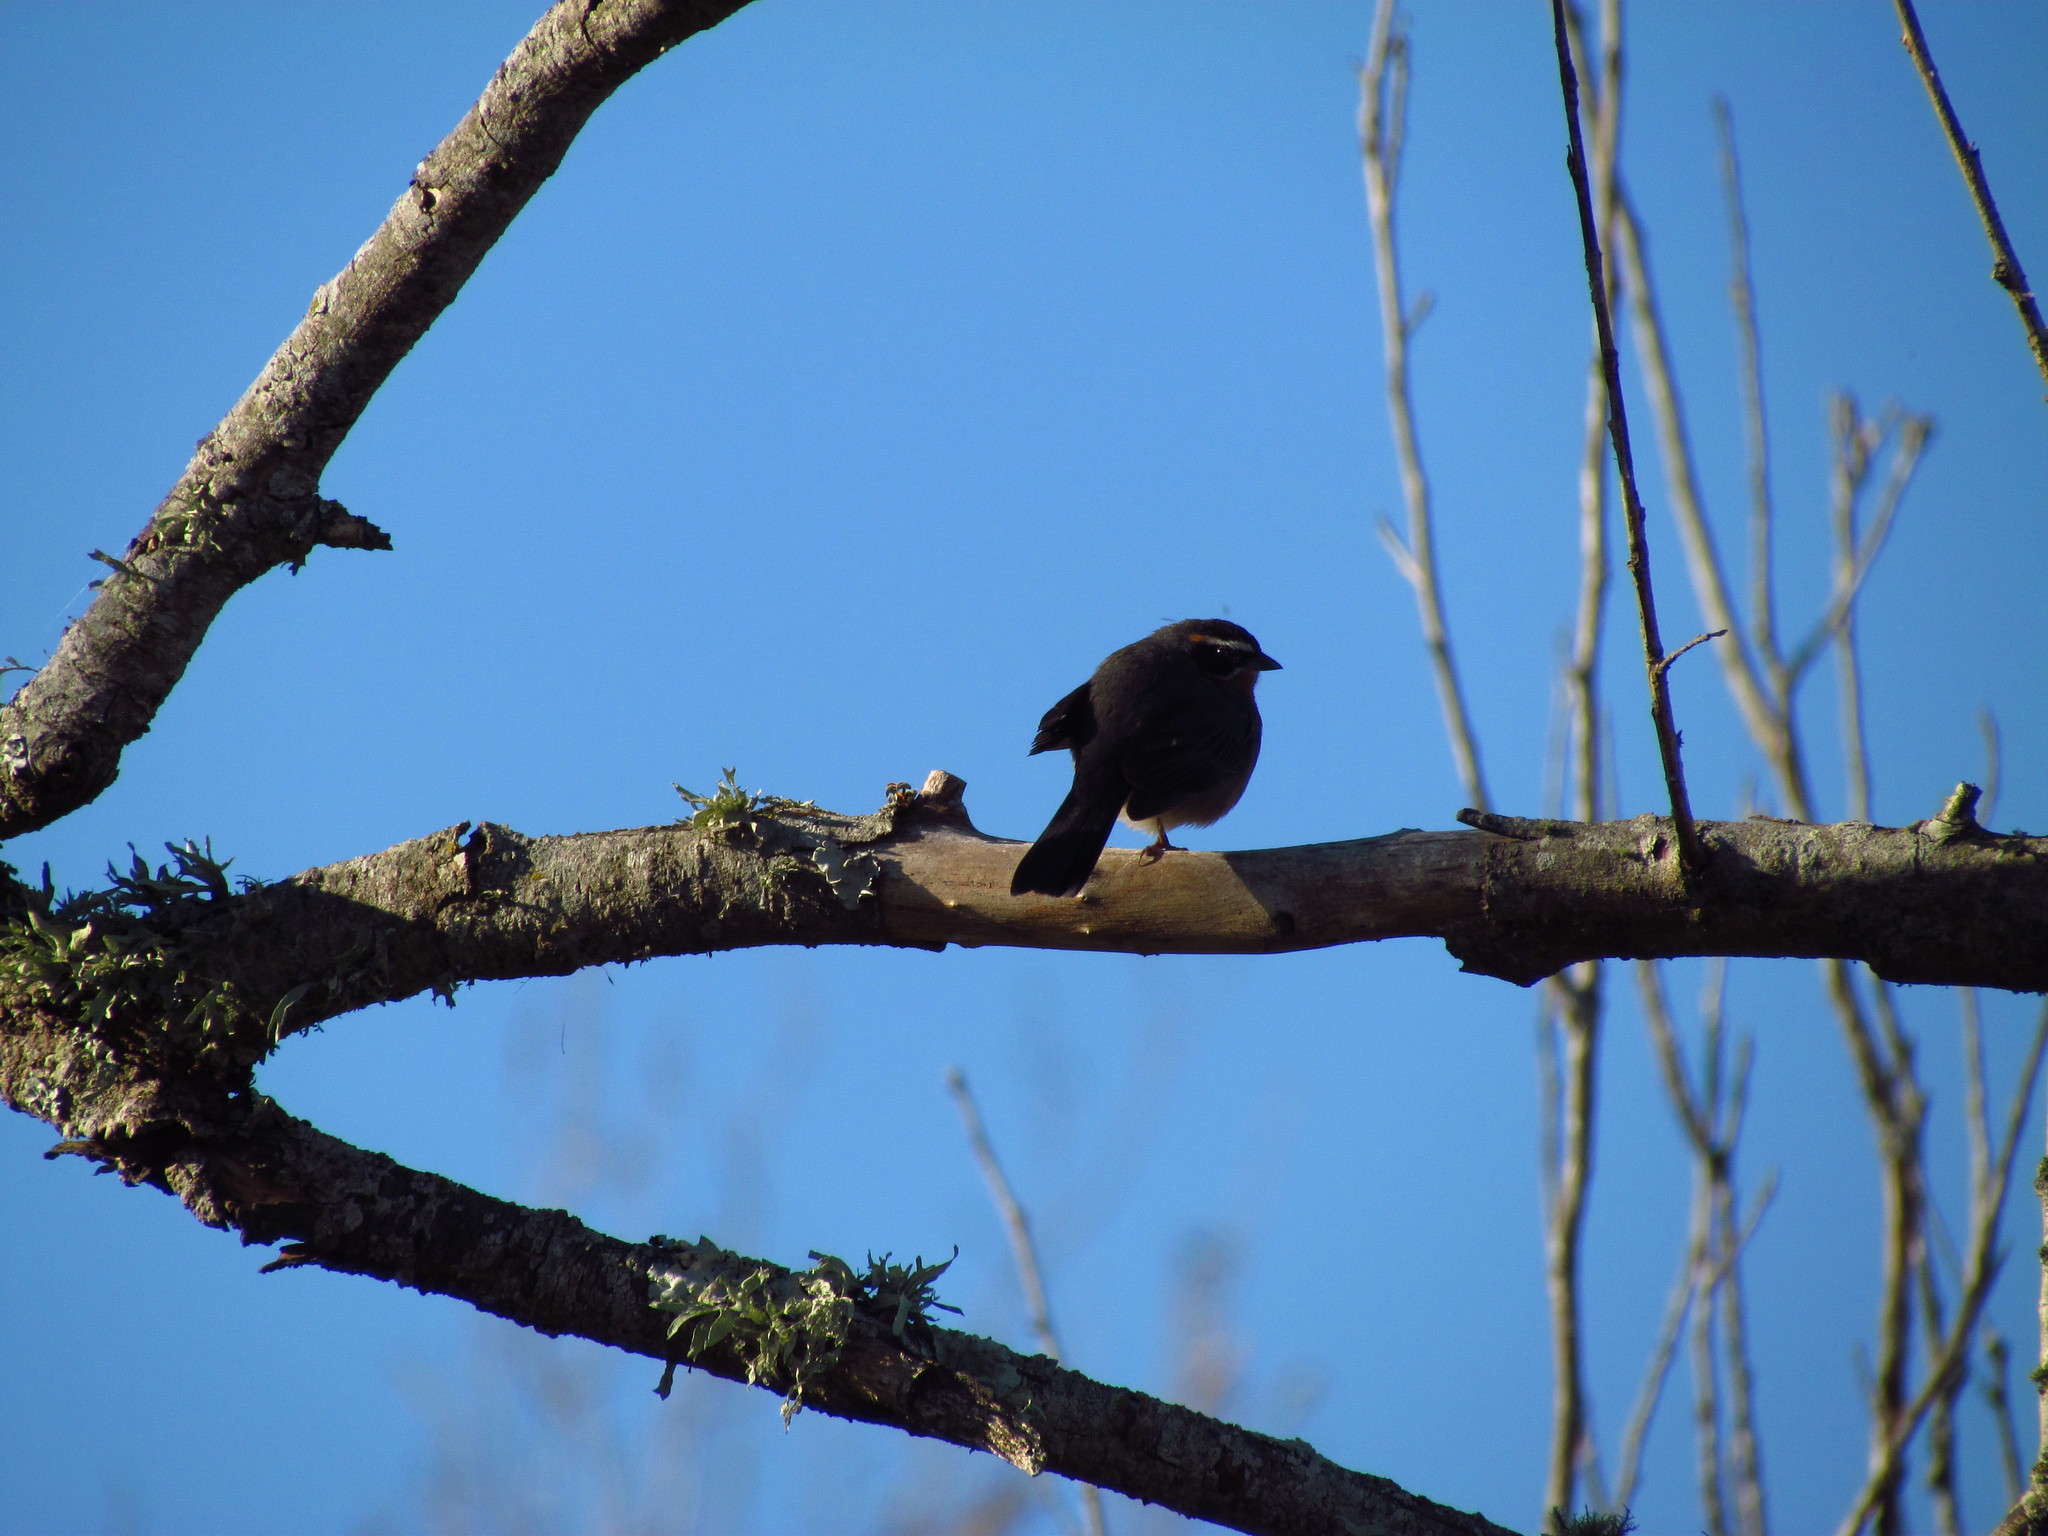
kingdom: Animalia
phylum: Chordata
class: Aves
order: Passeriformes
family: Thraupidae
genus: Poospiza
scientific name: Poospiza nigrorufa
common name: Black-and-rufous warbling finch
